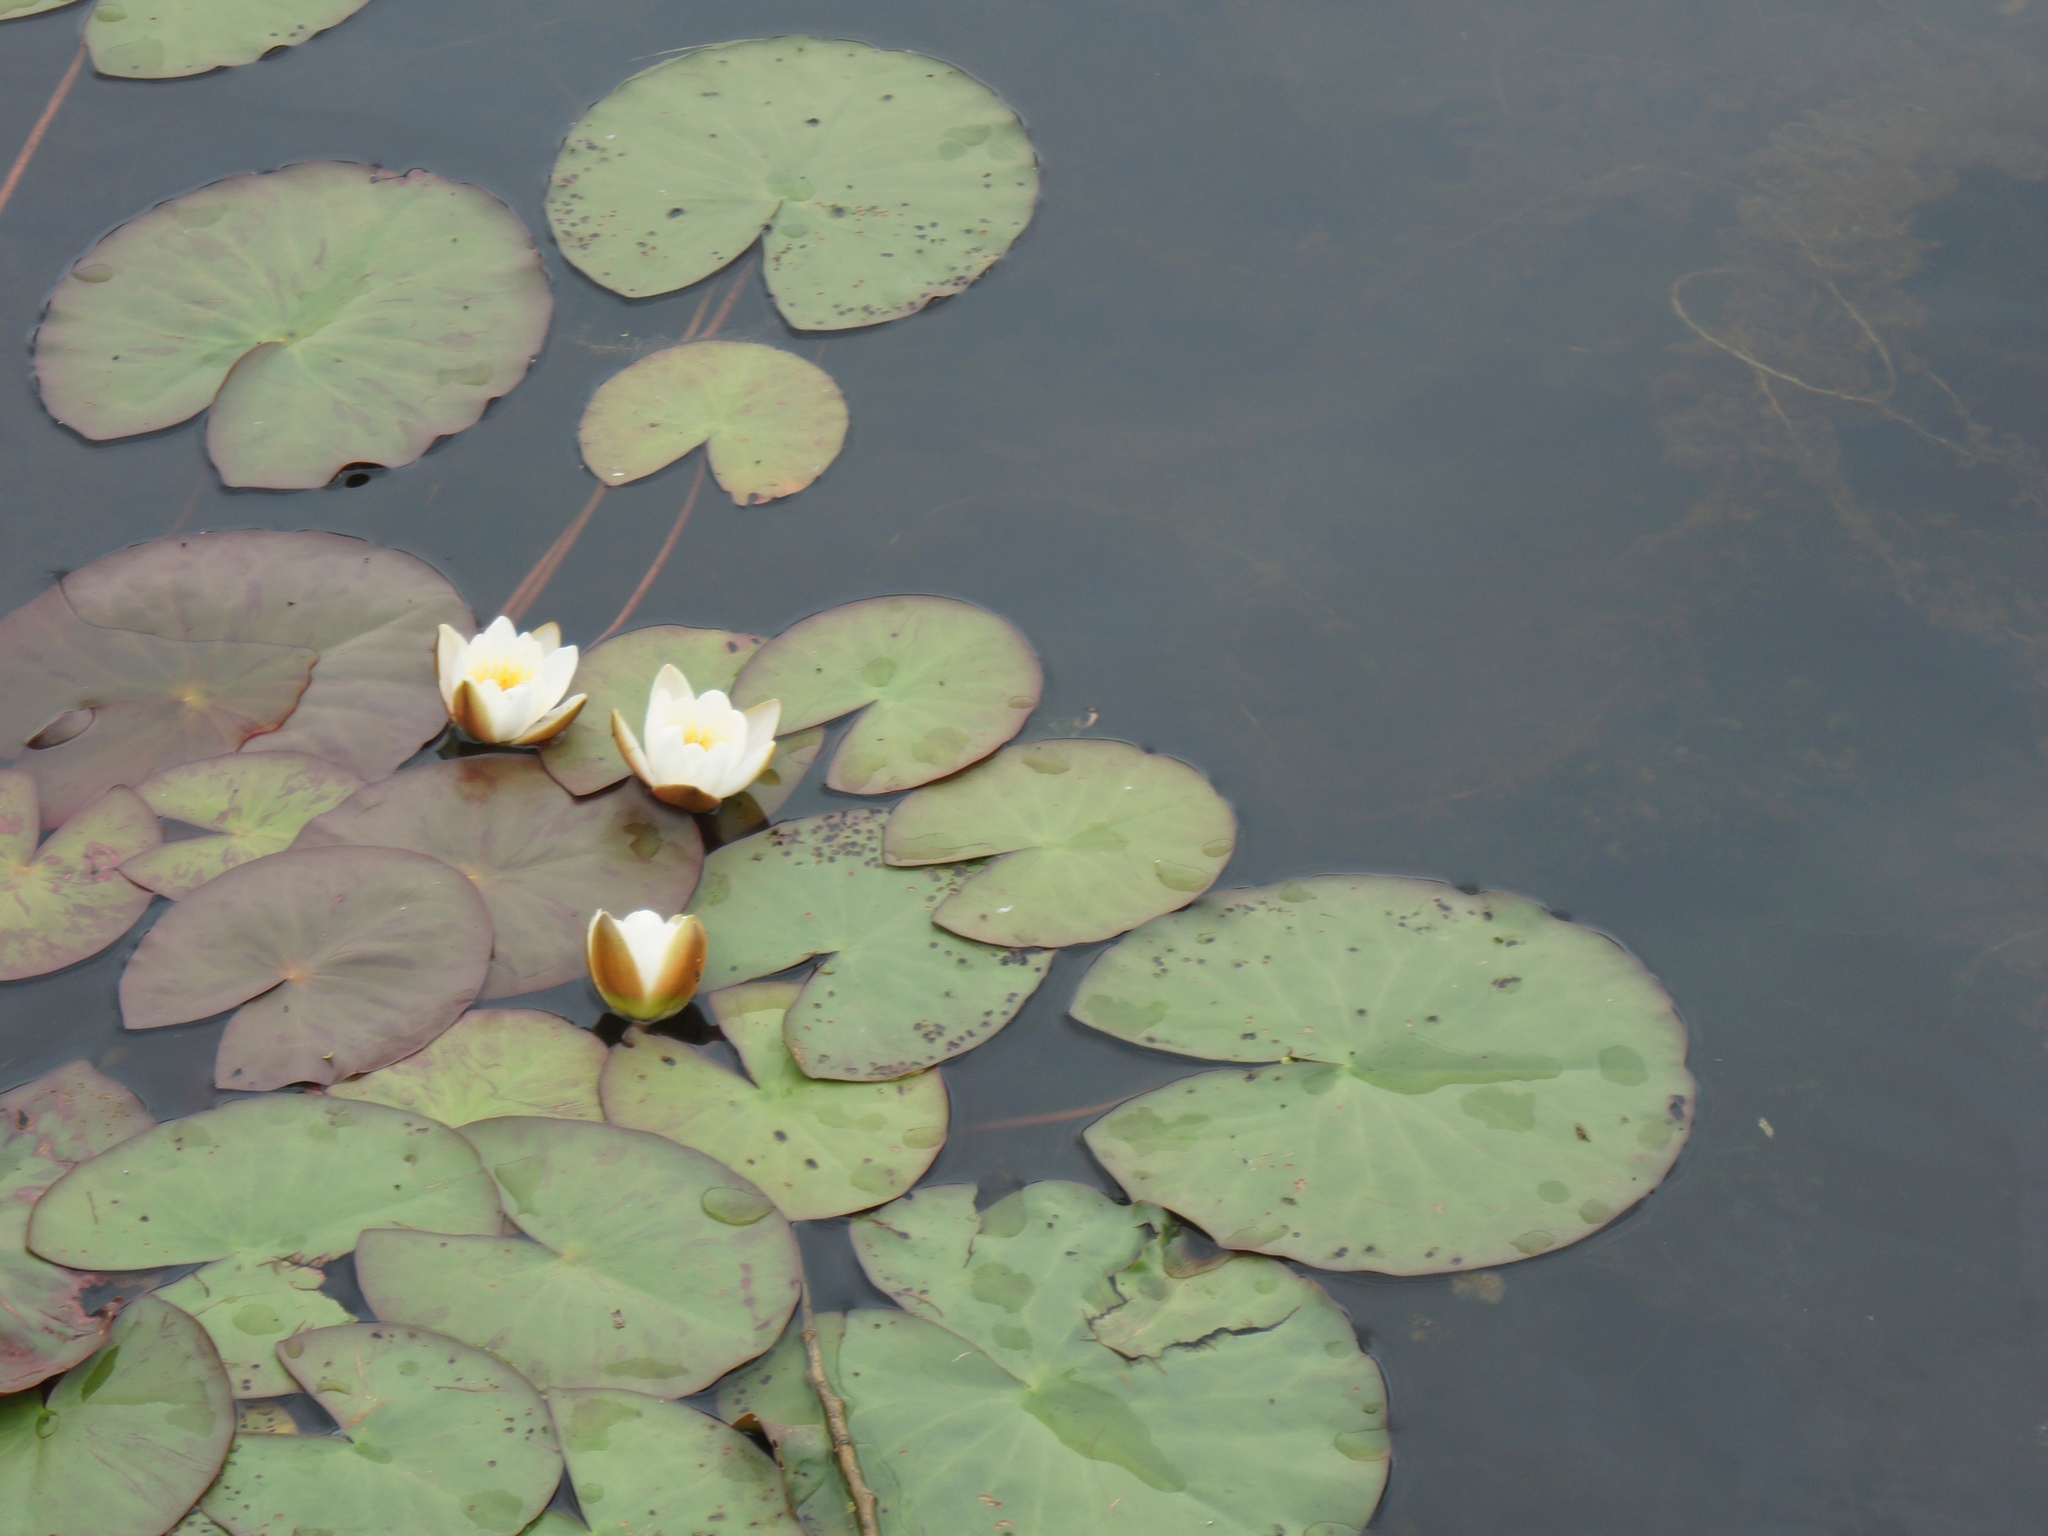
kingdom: Plantae
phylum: Tracheophyta
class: Magnoliopsida
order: Nymphaeales
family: Nymphaeaceae
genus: Nymphaea
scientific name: Nymphaea candida
